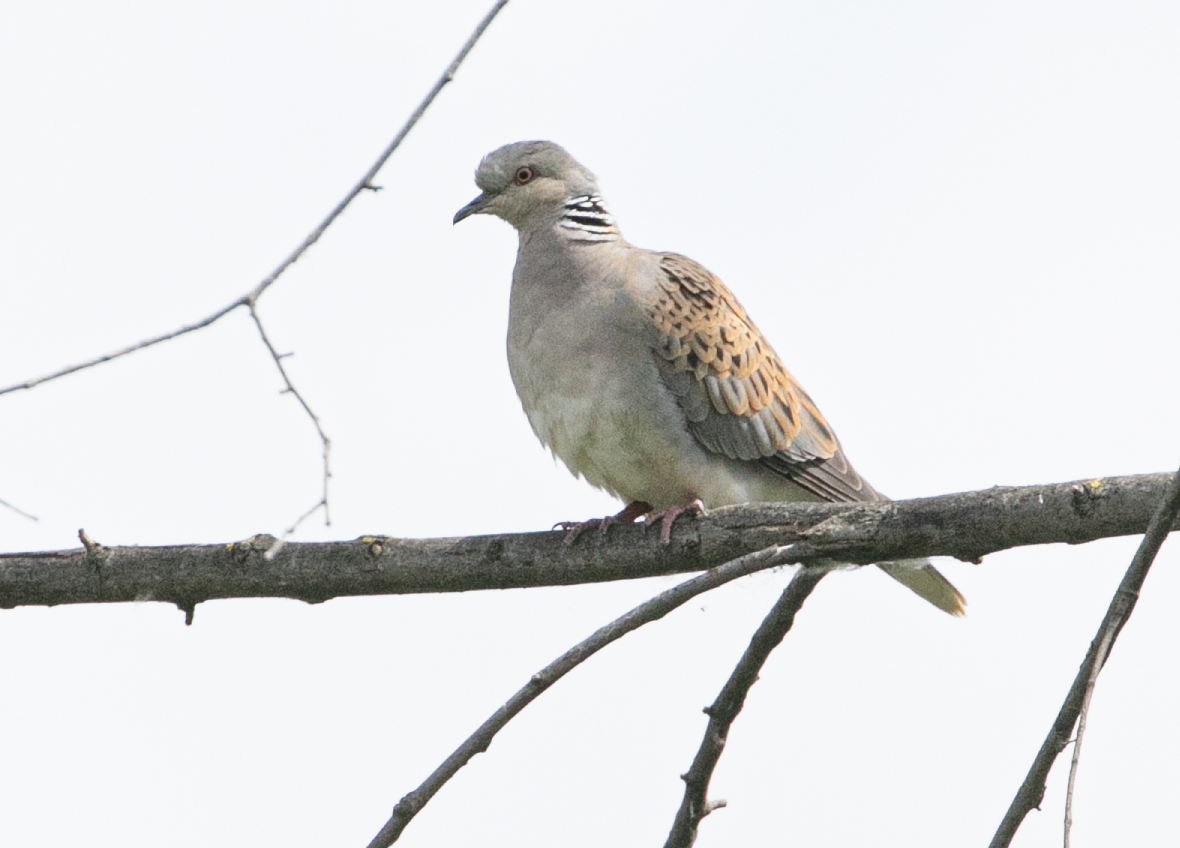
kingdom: Animalia
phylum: Chordata
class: Aves
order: Columbiformes
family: Columbidae
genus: Streptopelia
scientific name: Streptopelia turtur
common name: European turtle dove
